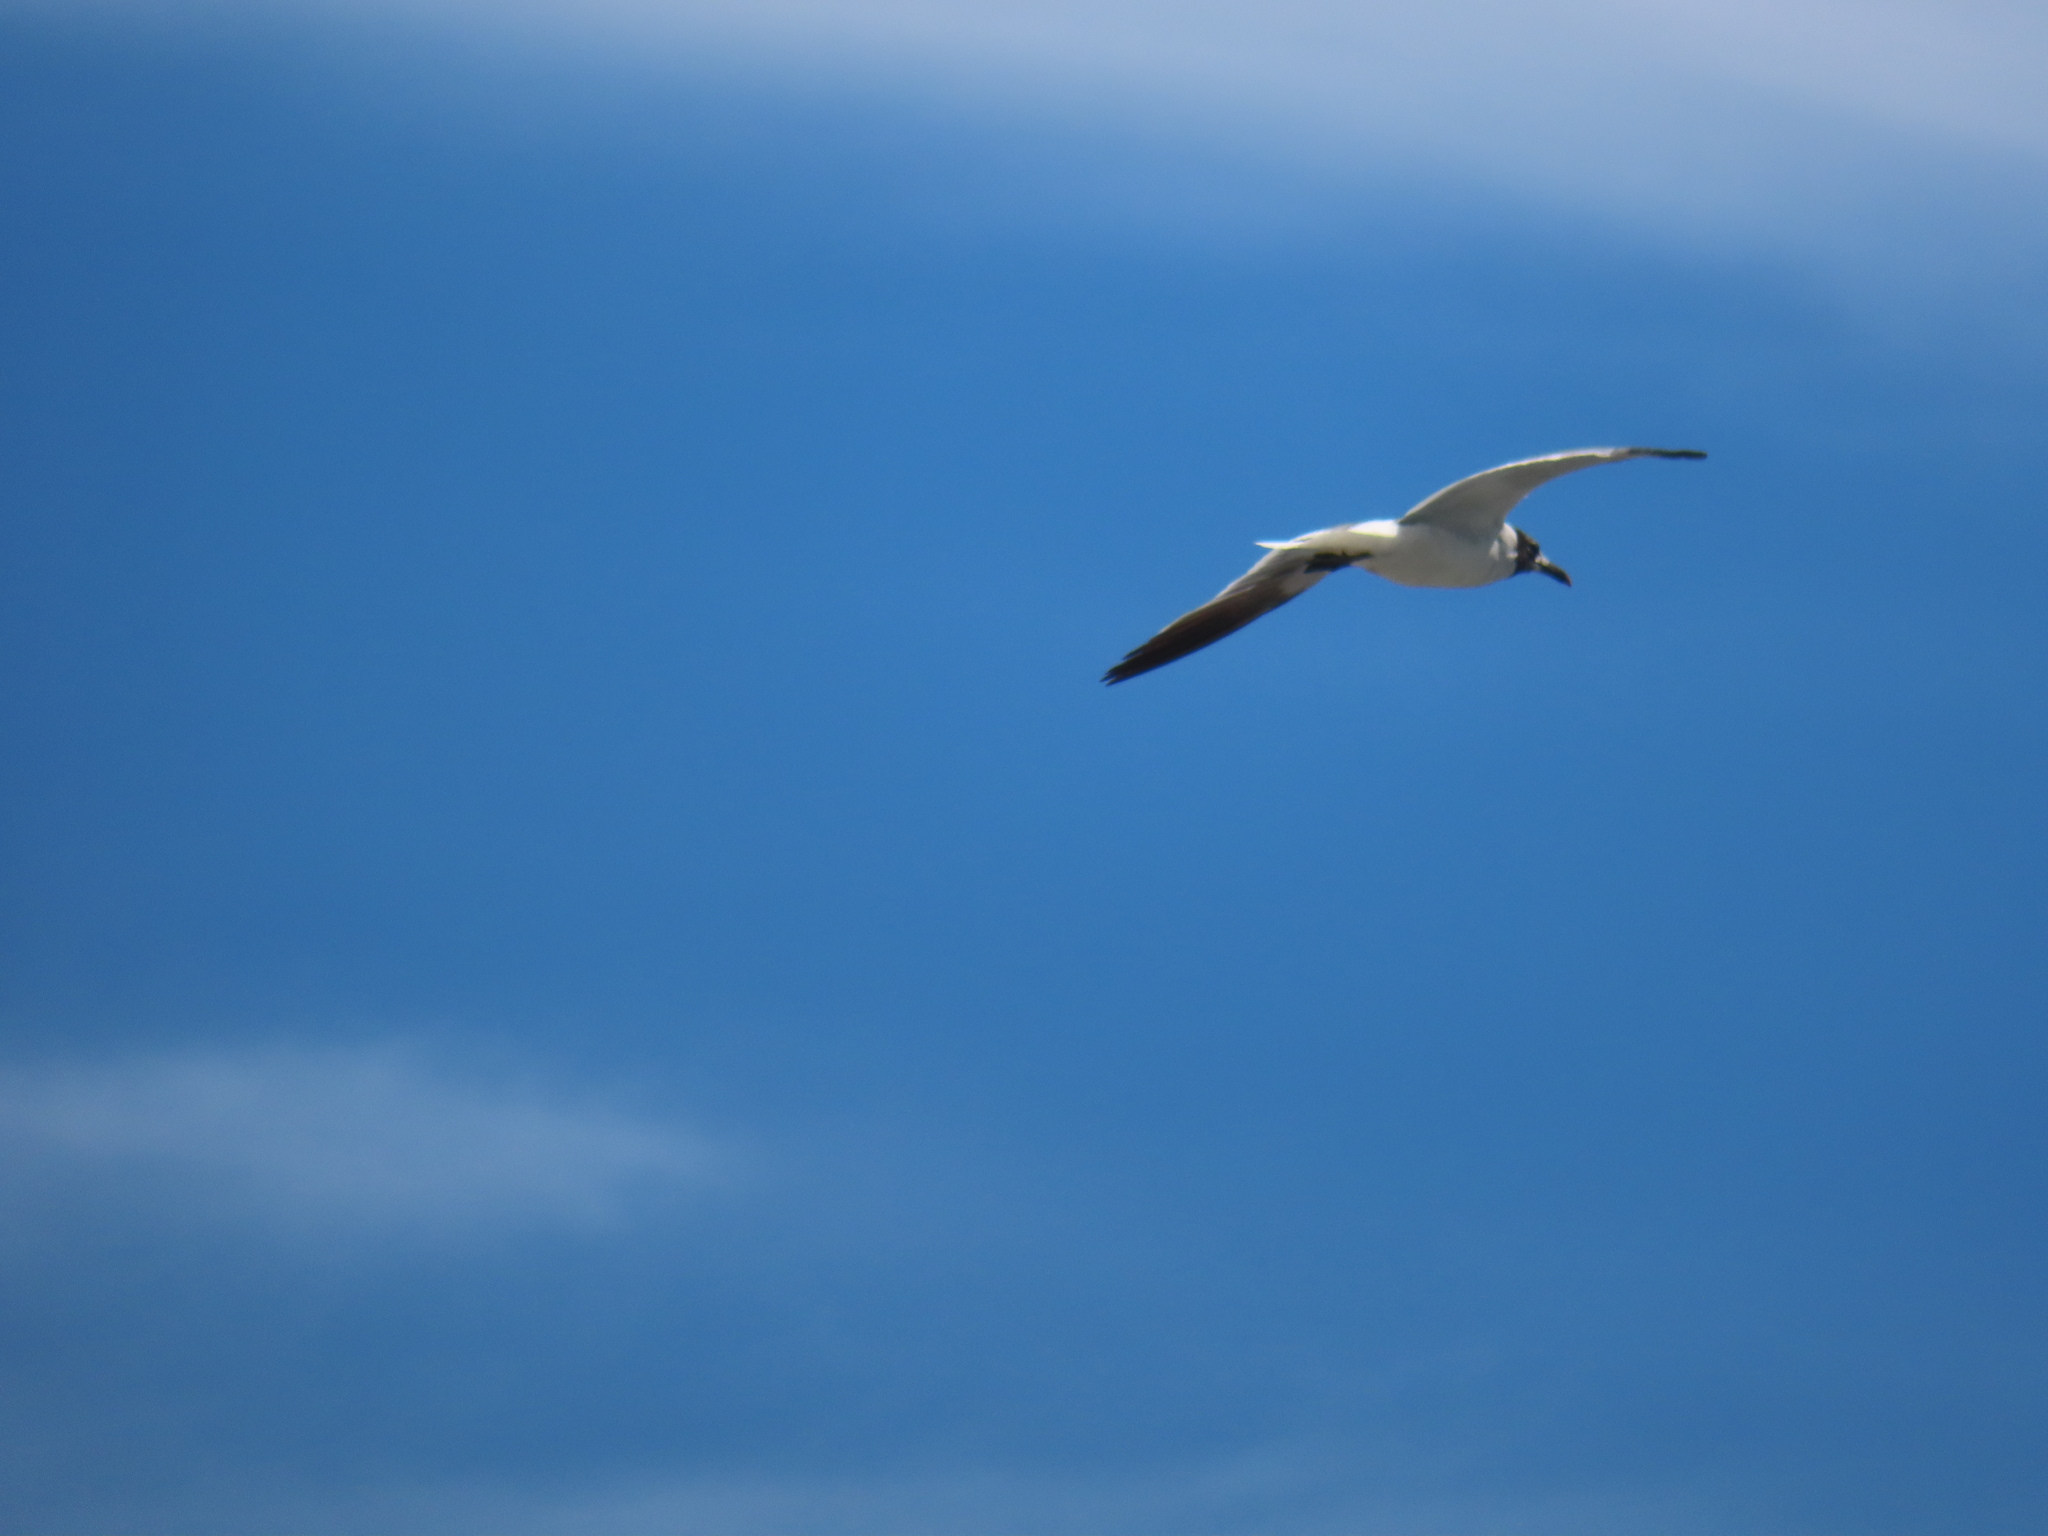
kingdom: Animalia
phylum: Chordata
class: Aves
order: Charadriiformes
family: Laridae
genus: Leucophaeus
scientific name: Leucophaeus atricilla
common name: Laughing gull
